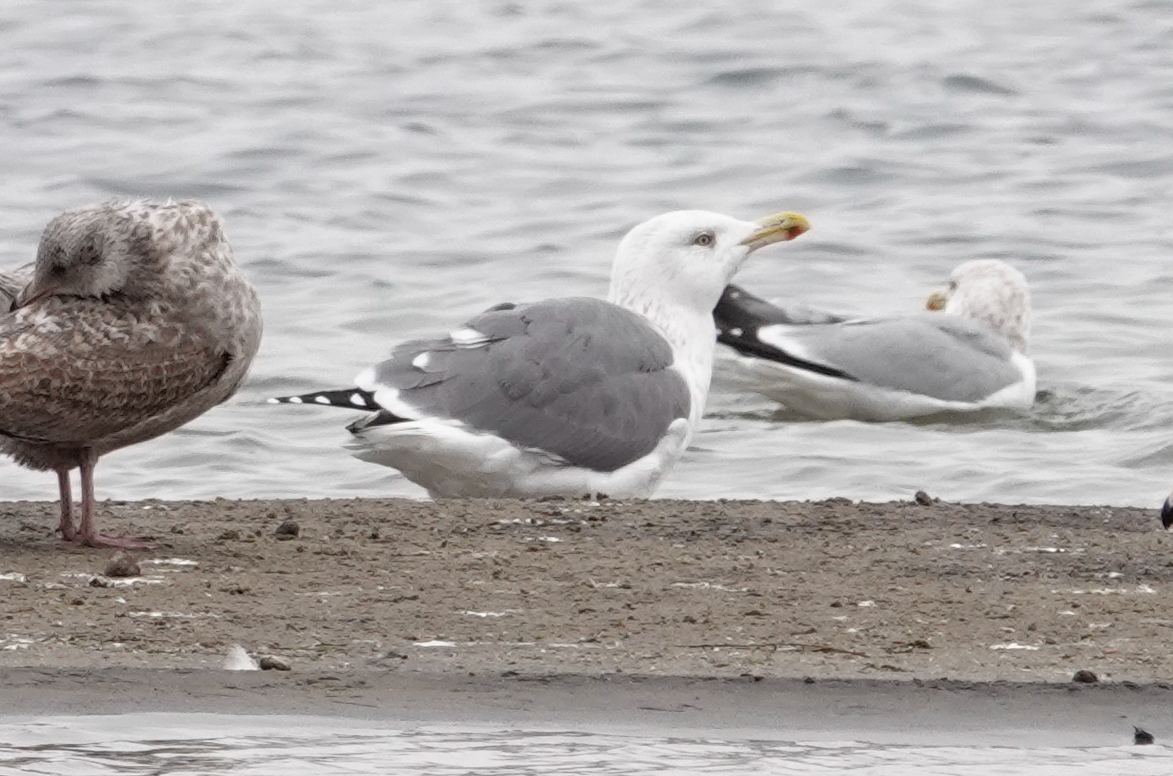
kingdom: Animalia
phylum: Chordata
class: Aves
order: Charadriiformes
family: Laridae
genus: Larus
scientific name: Larus
